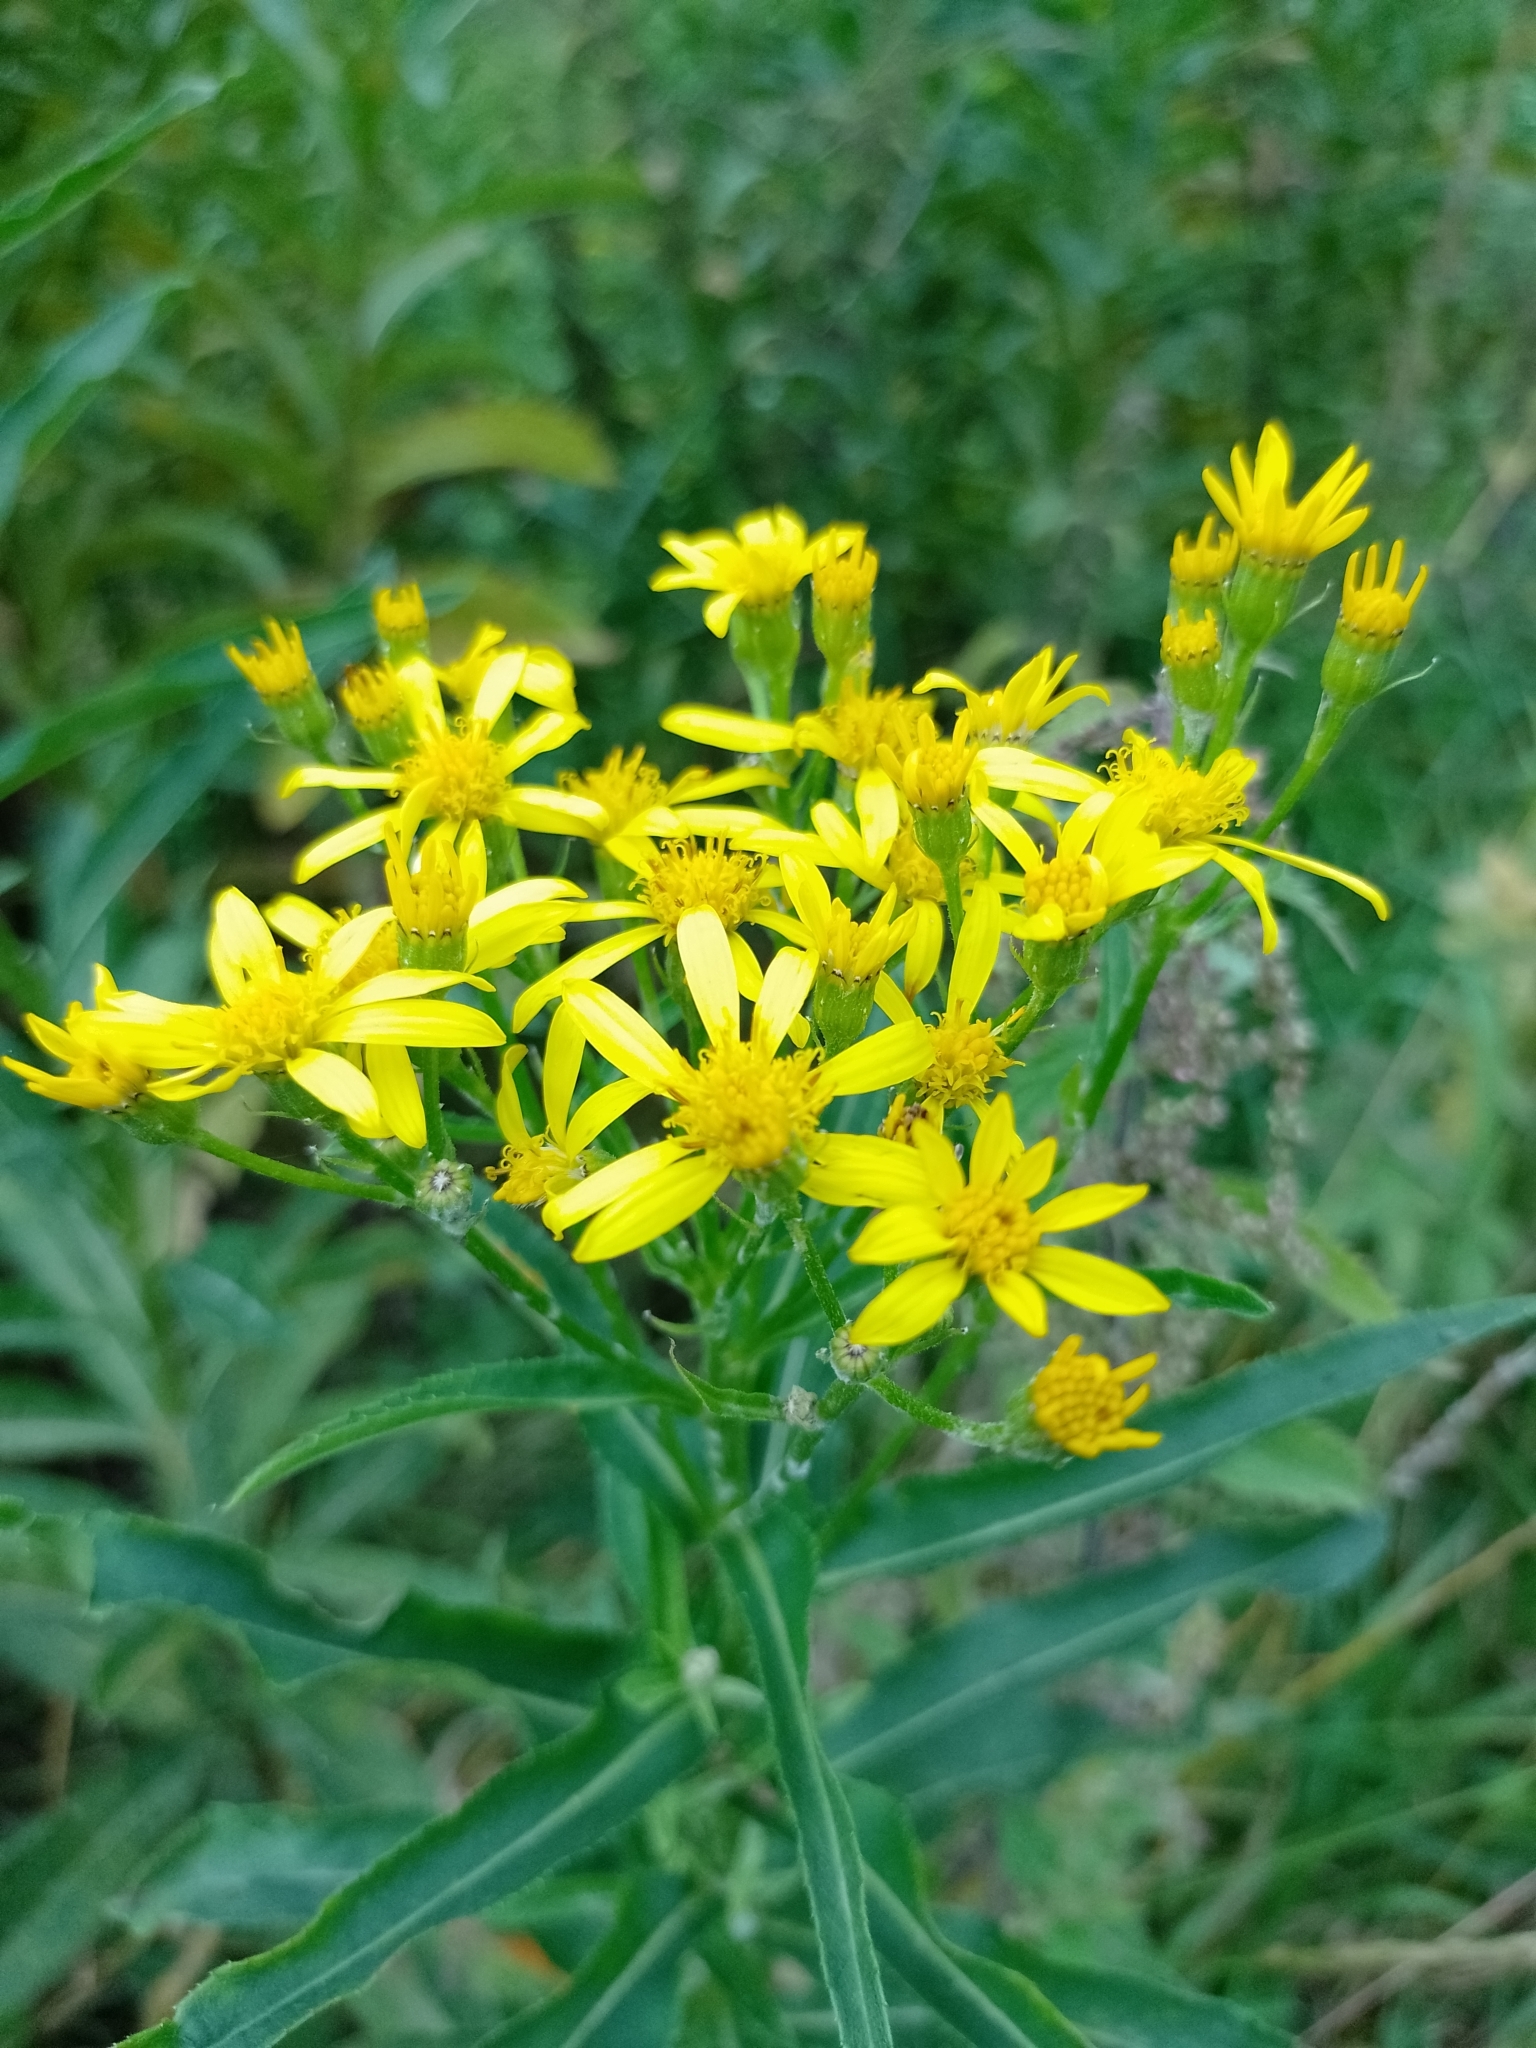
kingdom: Plantae
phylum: Tracheophyta
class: Magnoliopsida
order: Asterales
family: Asteraceae
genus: Senecio
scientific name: Senecio sarracenicus
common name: Broad-leaved ragwort
